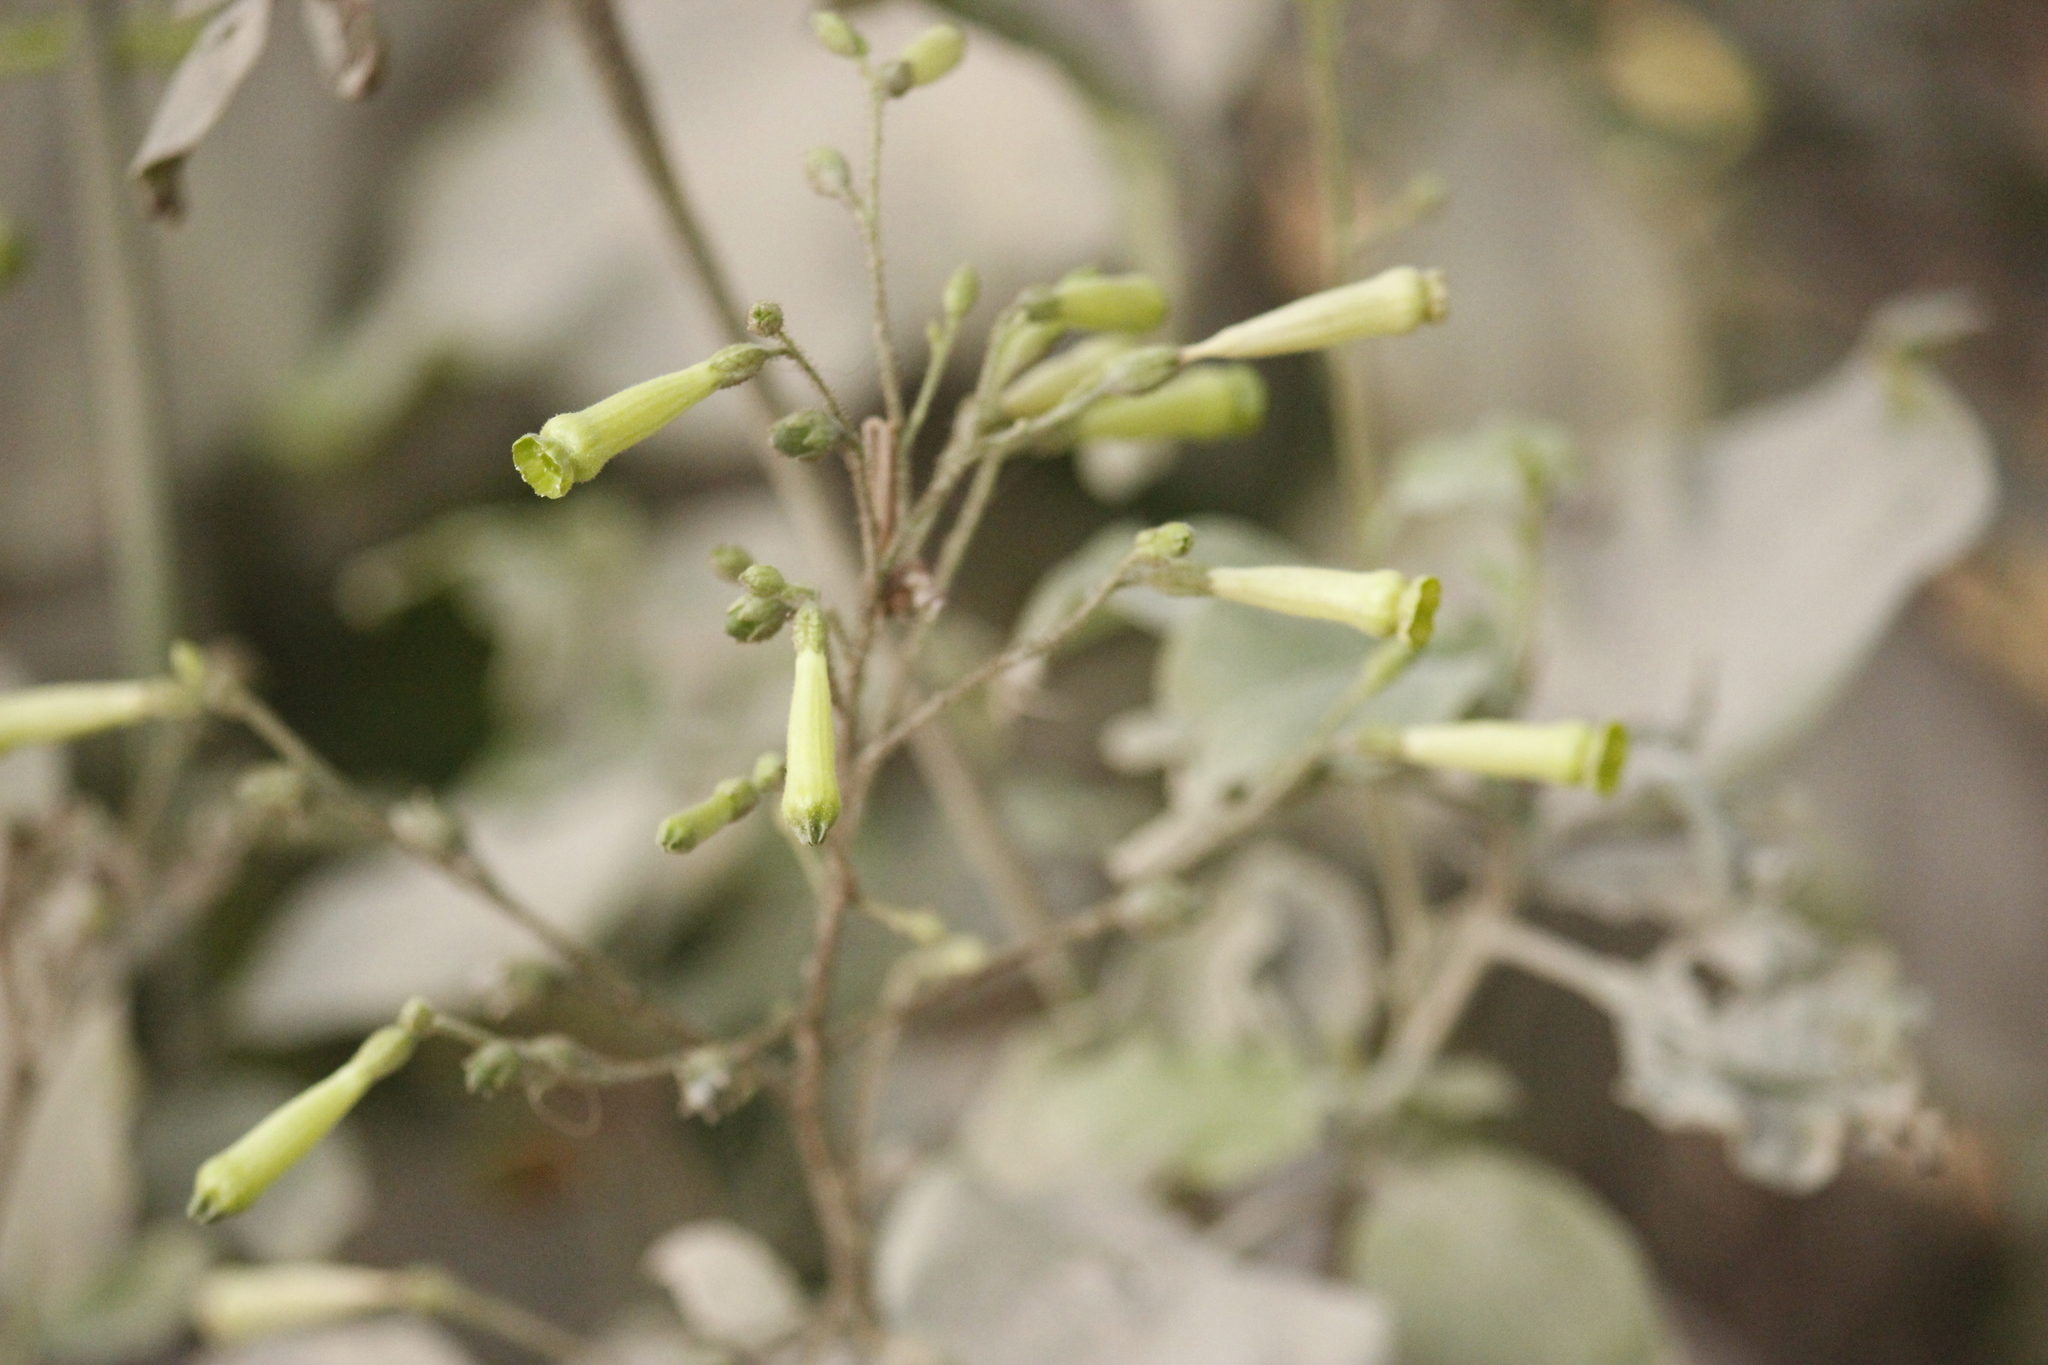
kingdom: Plantae
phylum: Tracheophyta
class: Magnoliopsida
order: Solanales
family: Solanaceae
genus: Nicotiana
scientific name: Nicotiana paniculata
